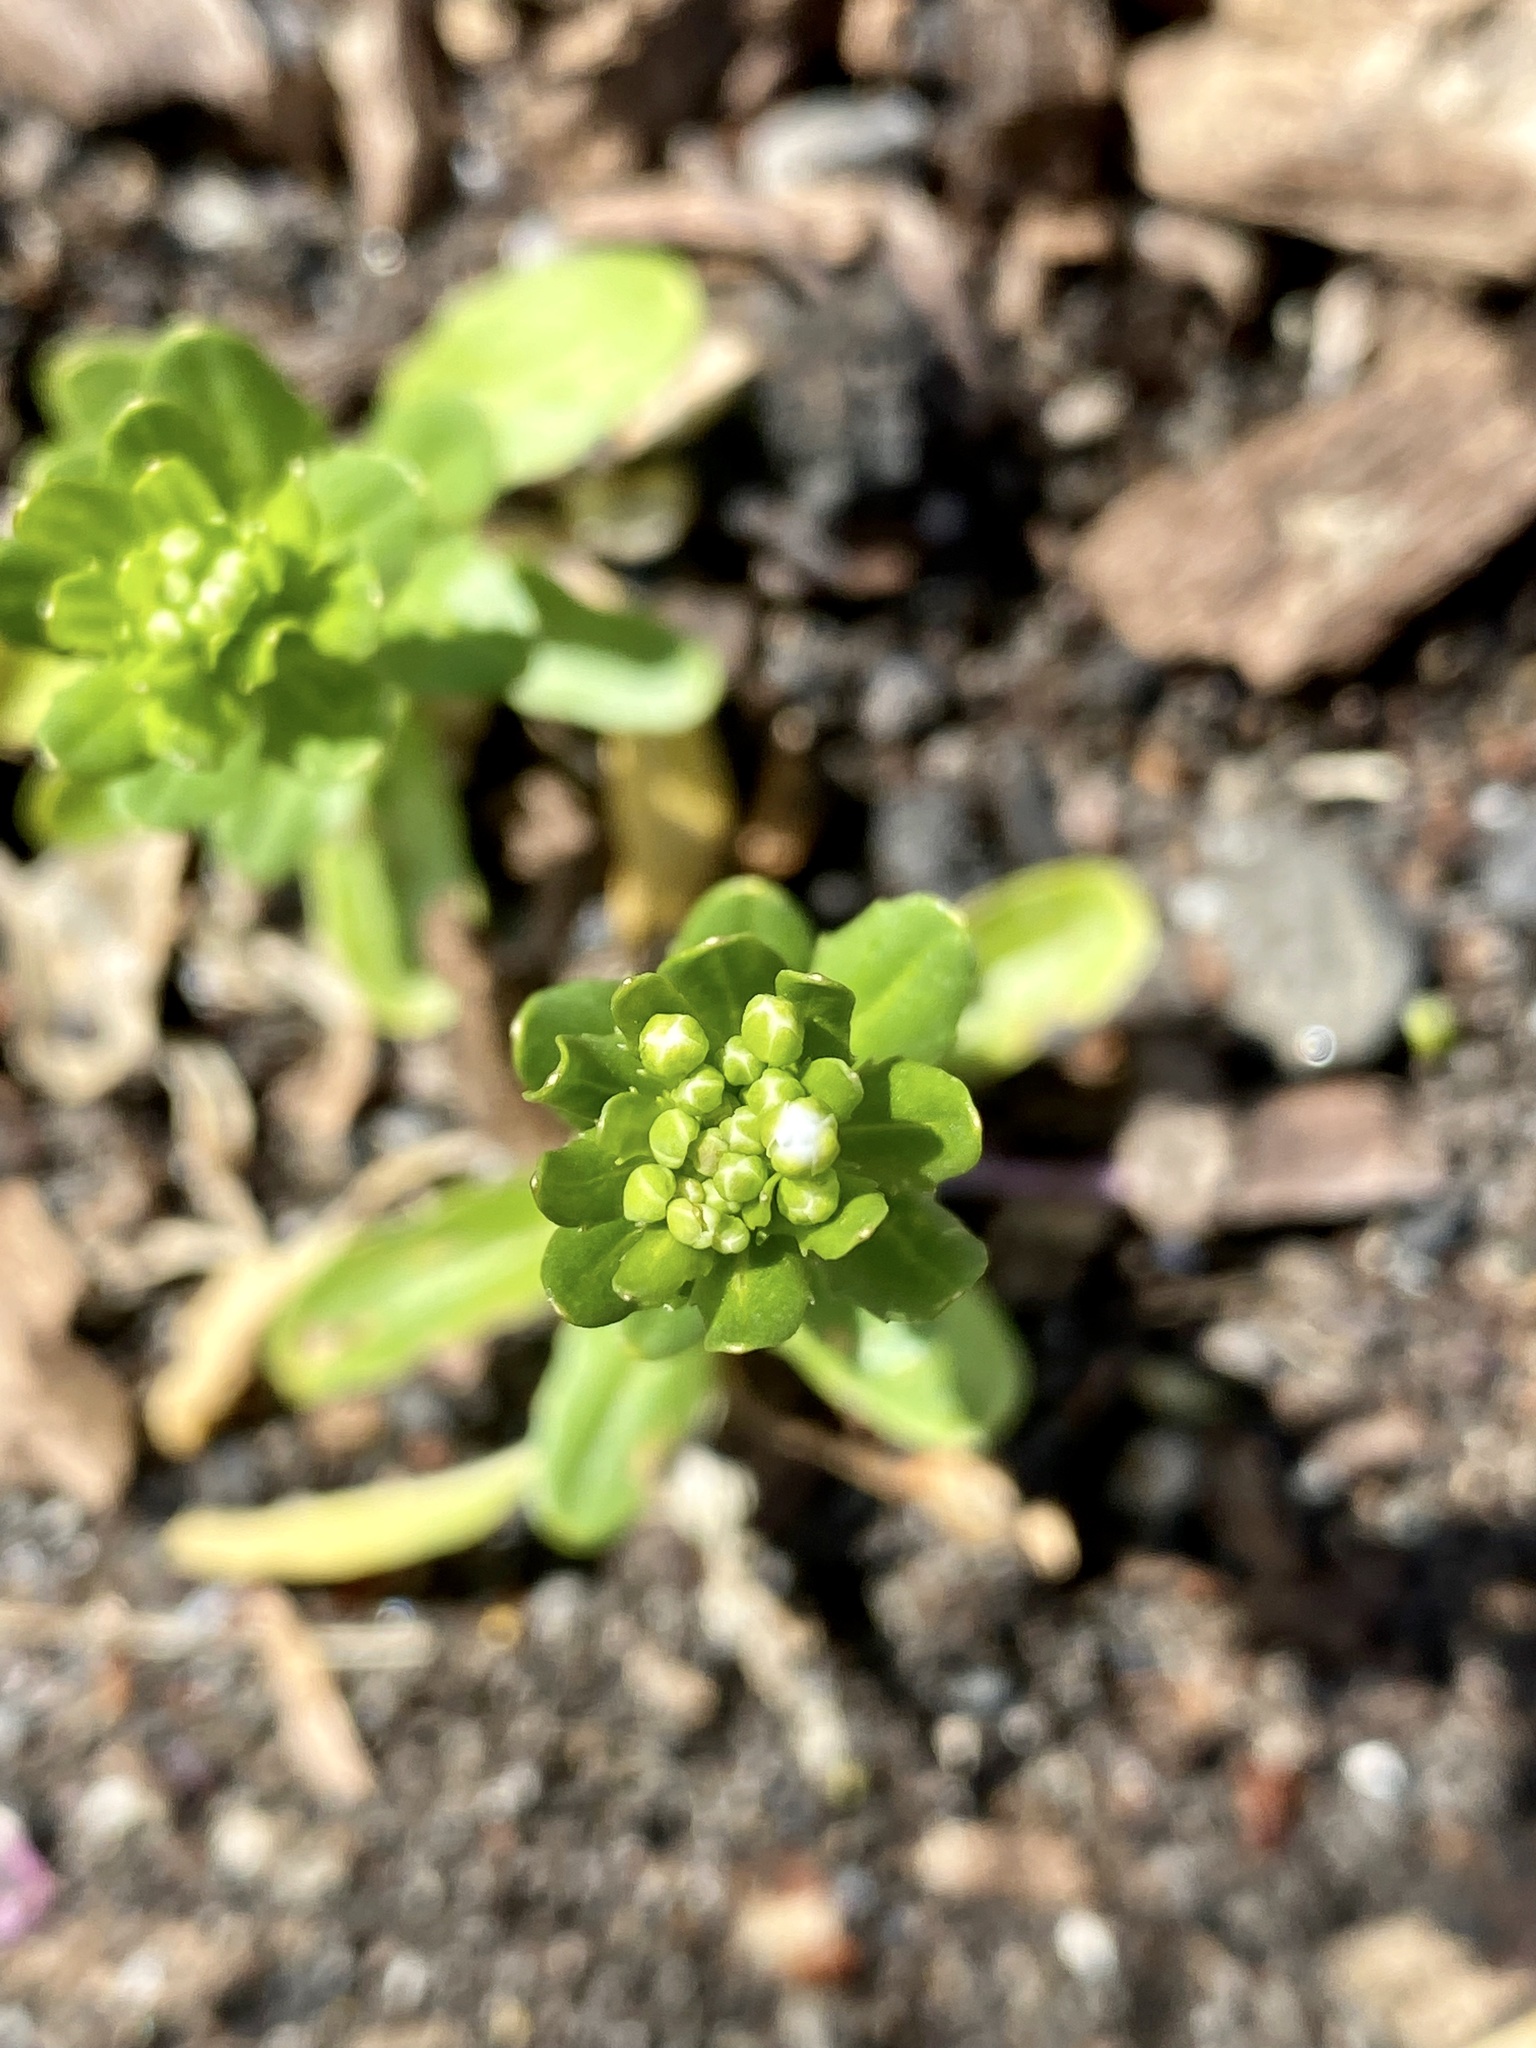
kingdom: Plantae
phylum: Tracheophyta
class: Magnoliopsida
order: Brassicales
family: Brassicaceae
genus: Thlaspi
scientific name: Thlaspi arvense
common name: Field pennycress
